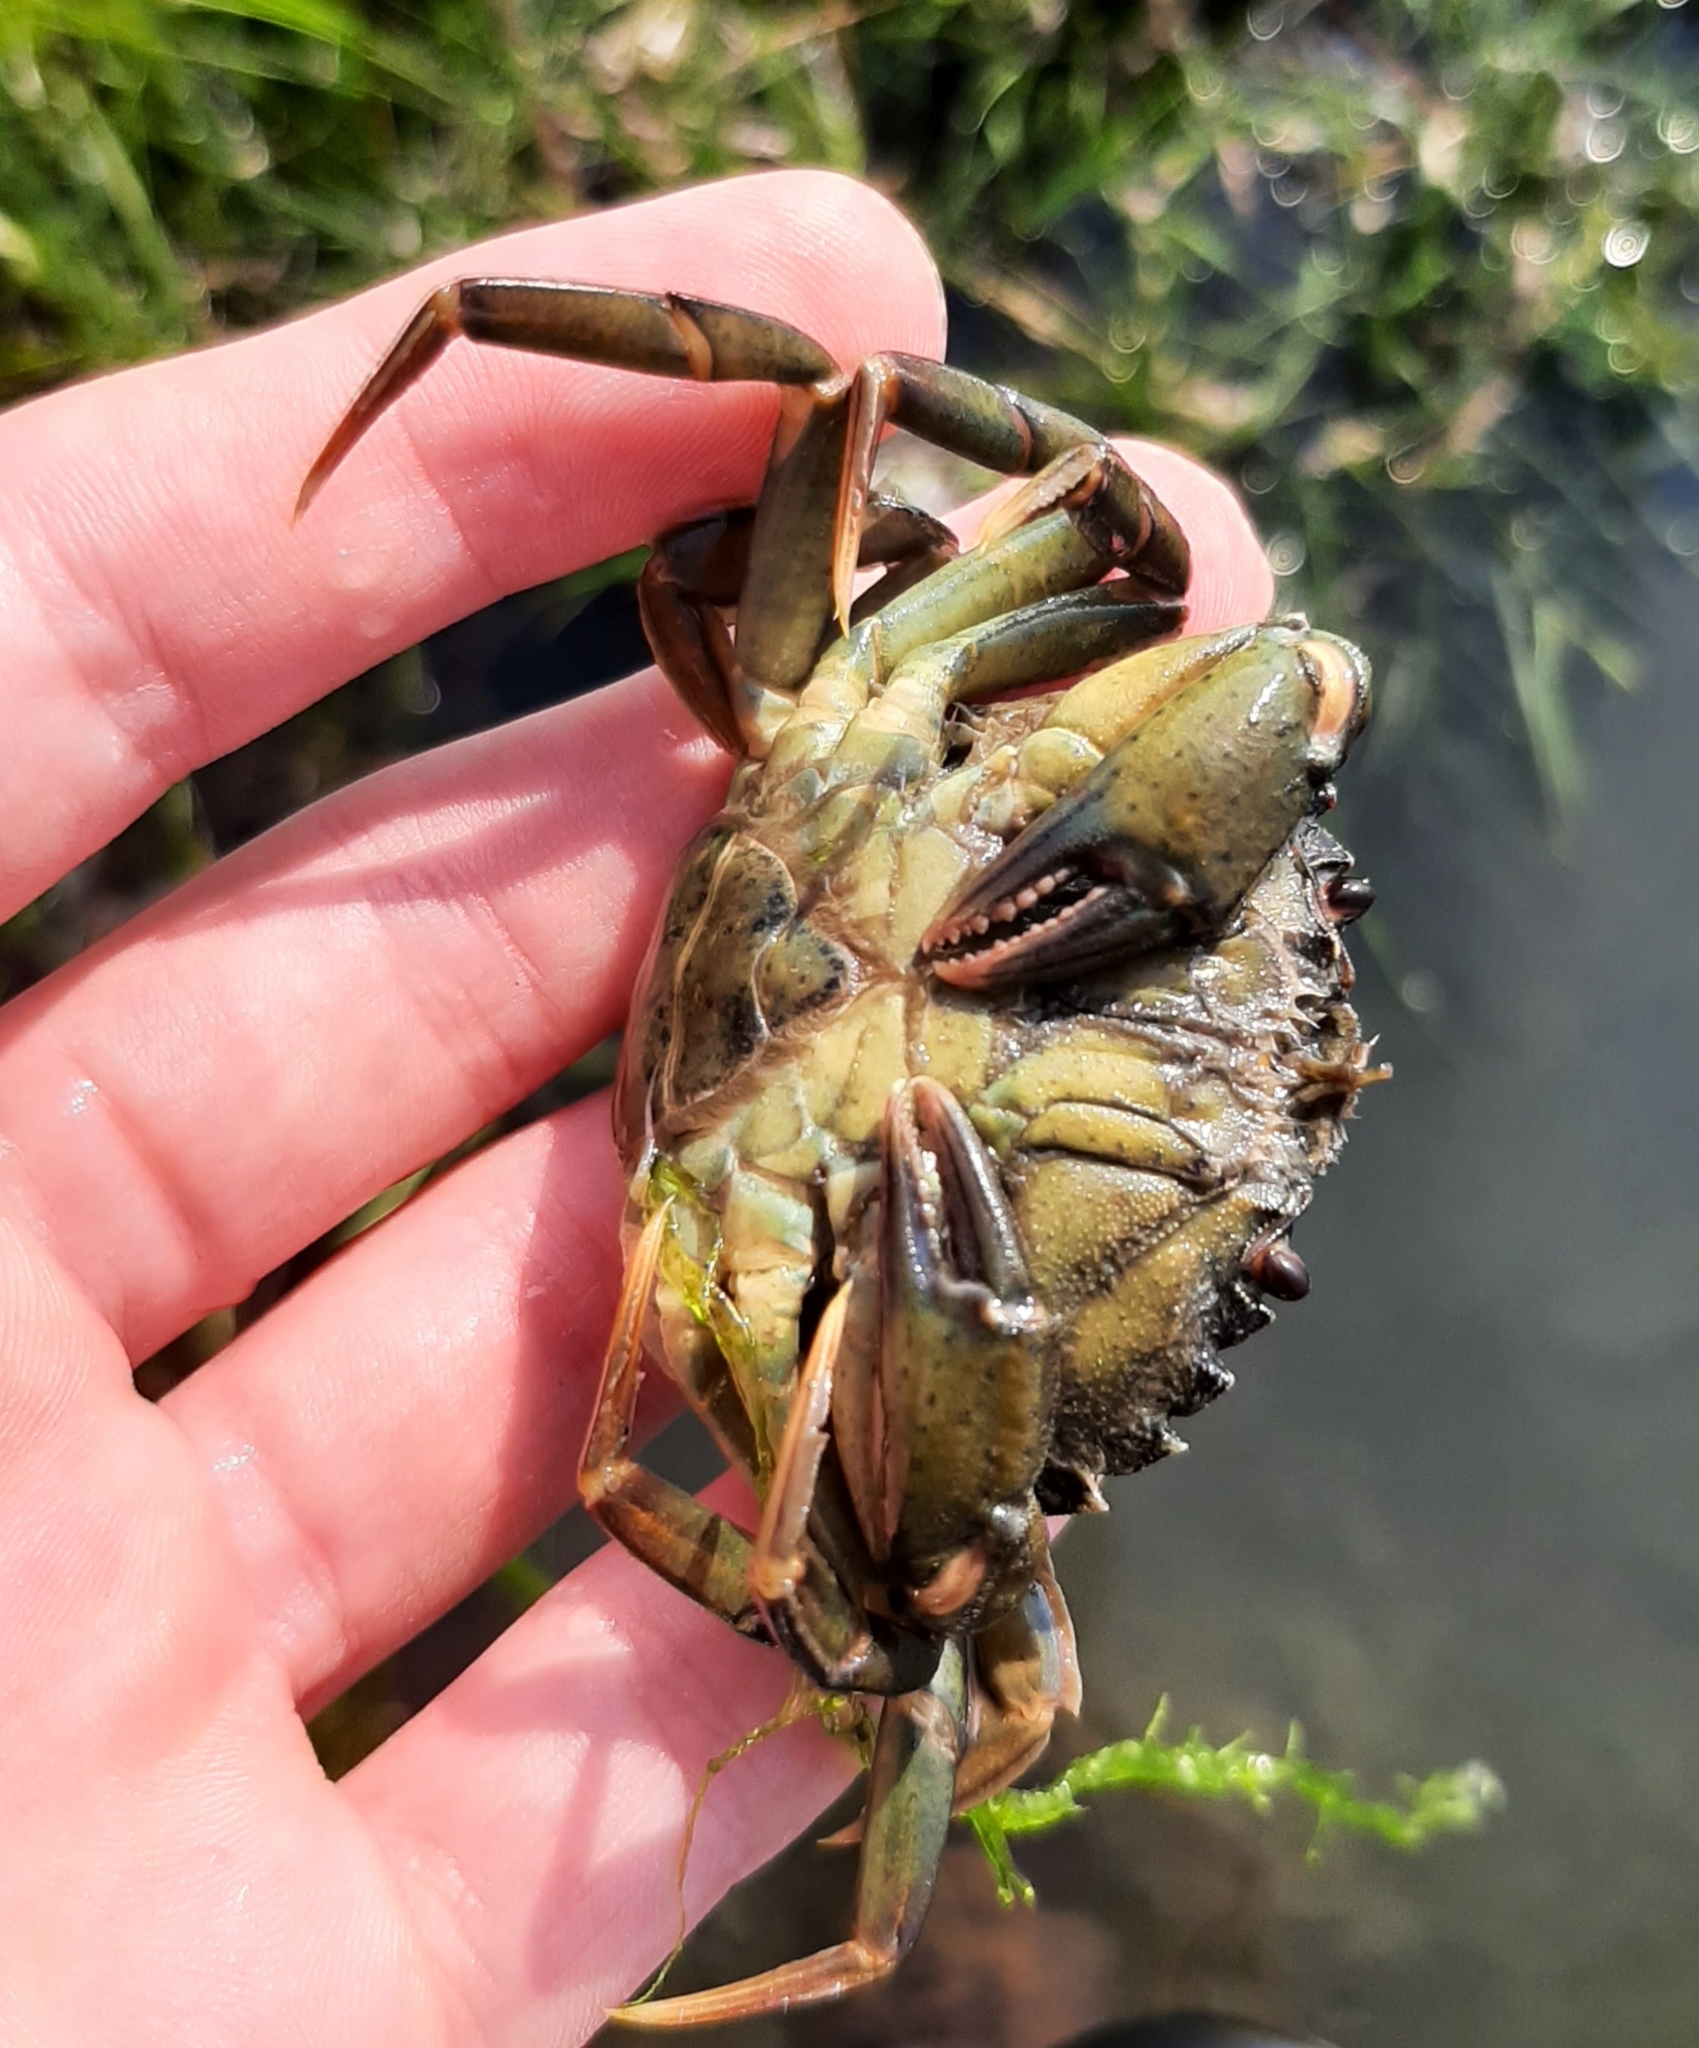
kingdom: Animalia
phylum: Arthropoda
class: Malacostraca
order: Decapoda
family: Carcinidae
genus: Carcinus
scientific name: Carcinus maenas
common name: European green crab
